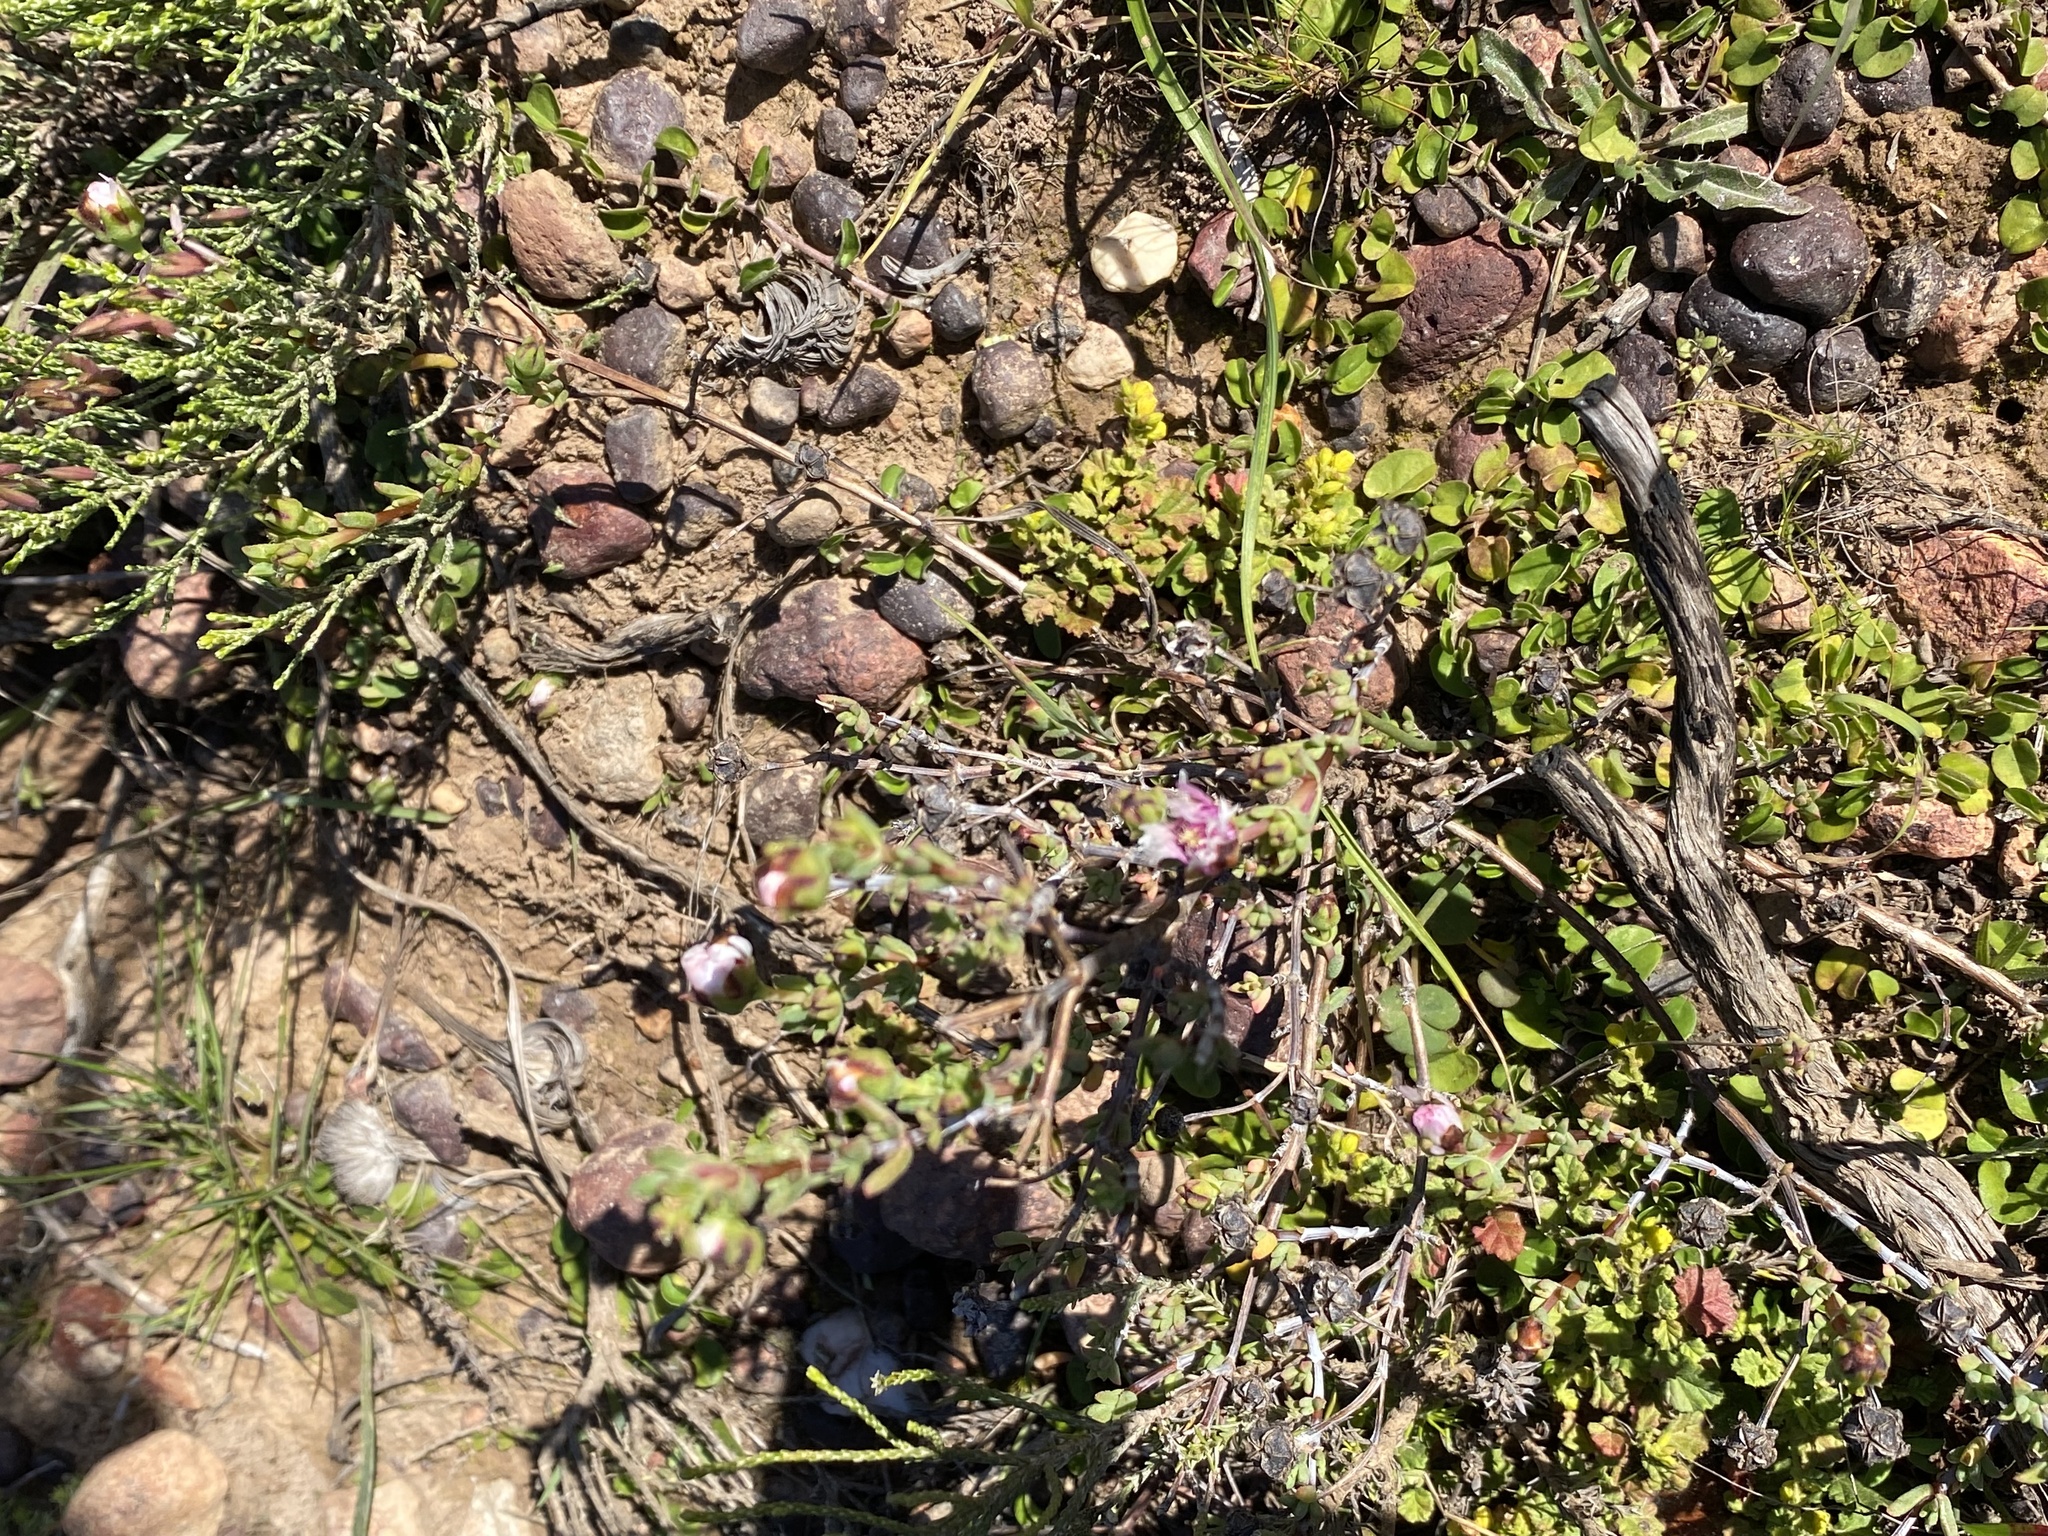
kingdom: Plantae
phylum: Tracheophyta
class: Magnoliopsida
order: Geraniales
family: Geraniaceae
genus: Pelargonium
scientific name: Pelargonium candicans
